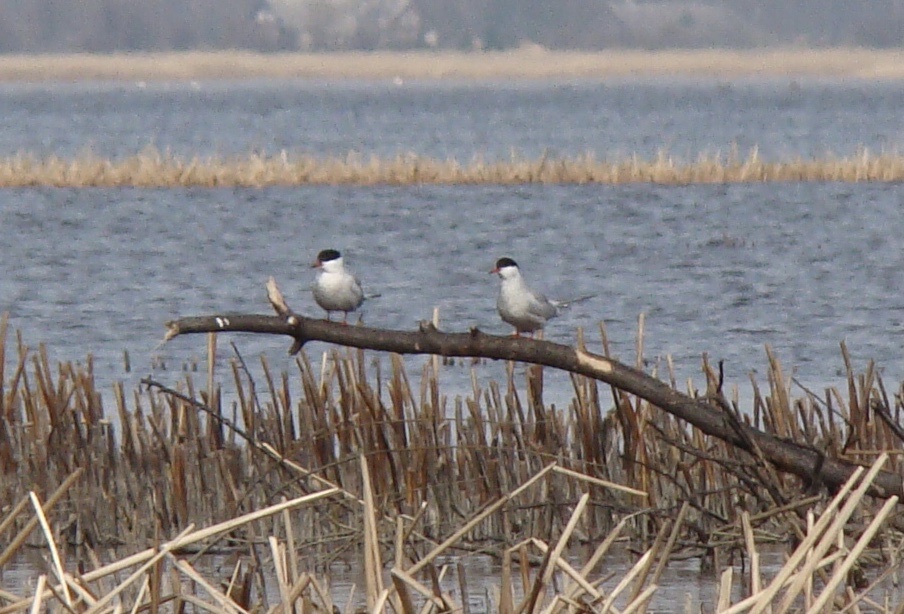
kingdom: Animalia
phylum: Chordata
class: Aves
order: Charadriiformes
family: Laridae
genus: Sterna
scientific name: Sterna hirundo
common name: Common tern
